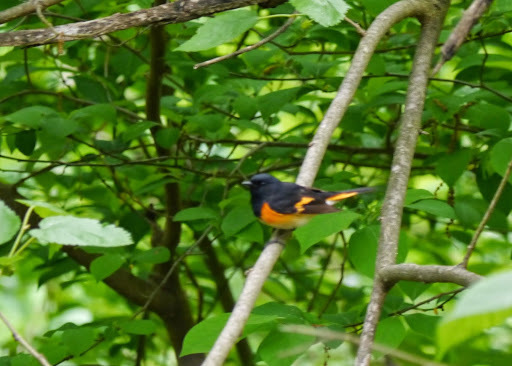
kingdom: Animalia
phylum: Chordata
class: Aves
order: Passeriformes
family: Parulidae
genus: Setophaga
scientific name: Setophaga ruticilla
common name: American redstart
